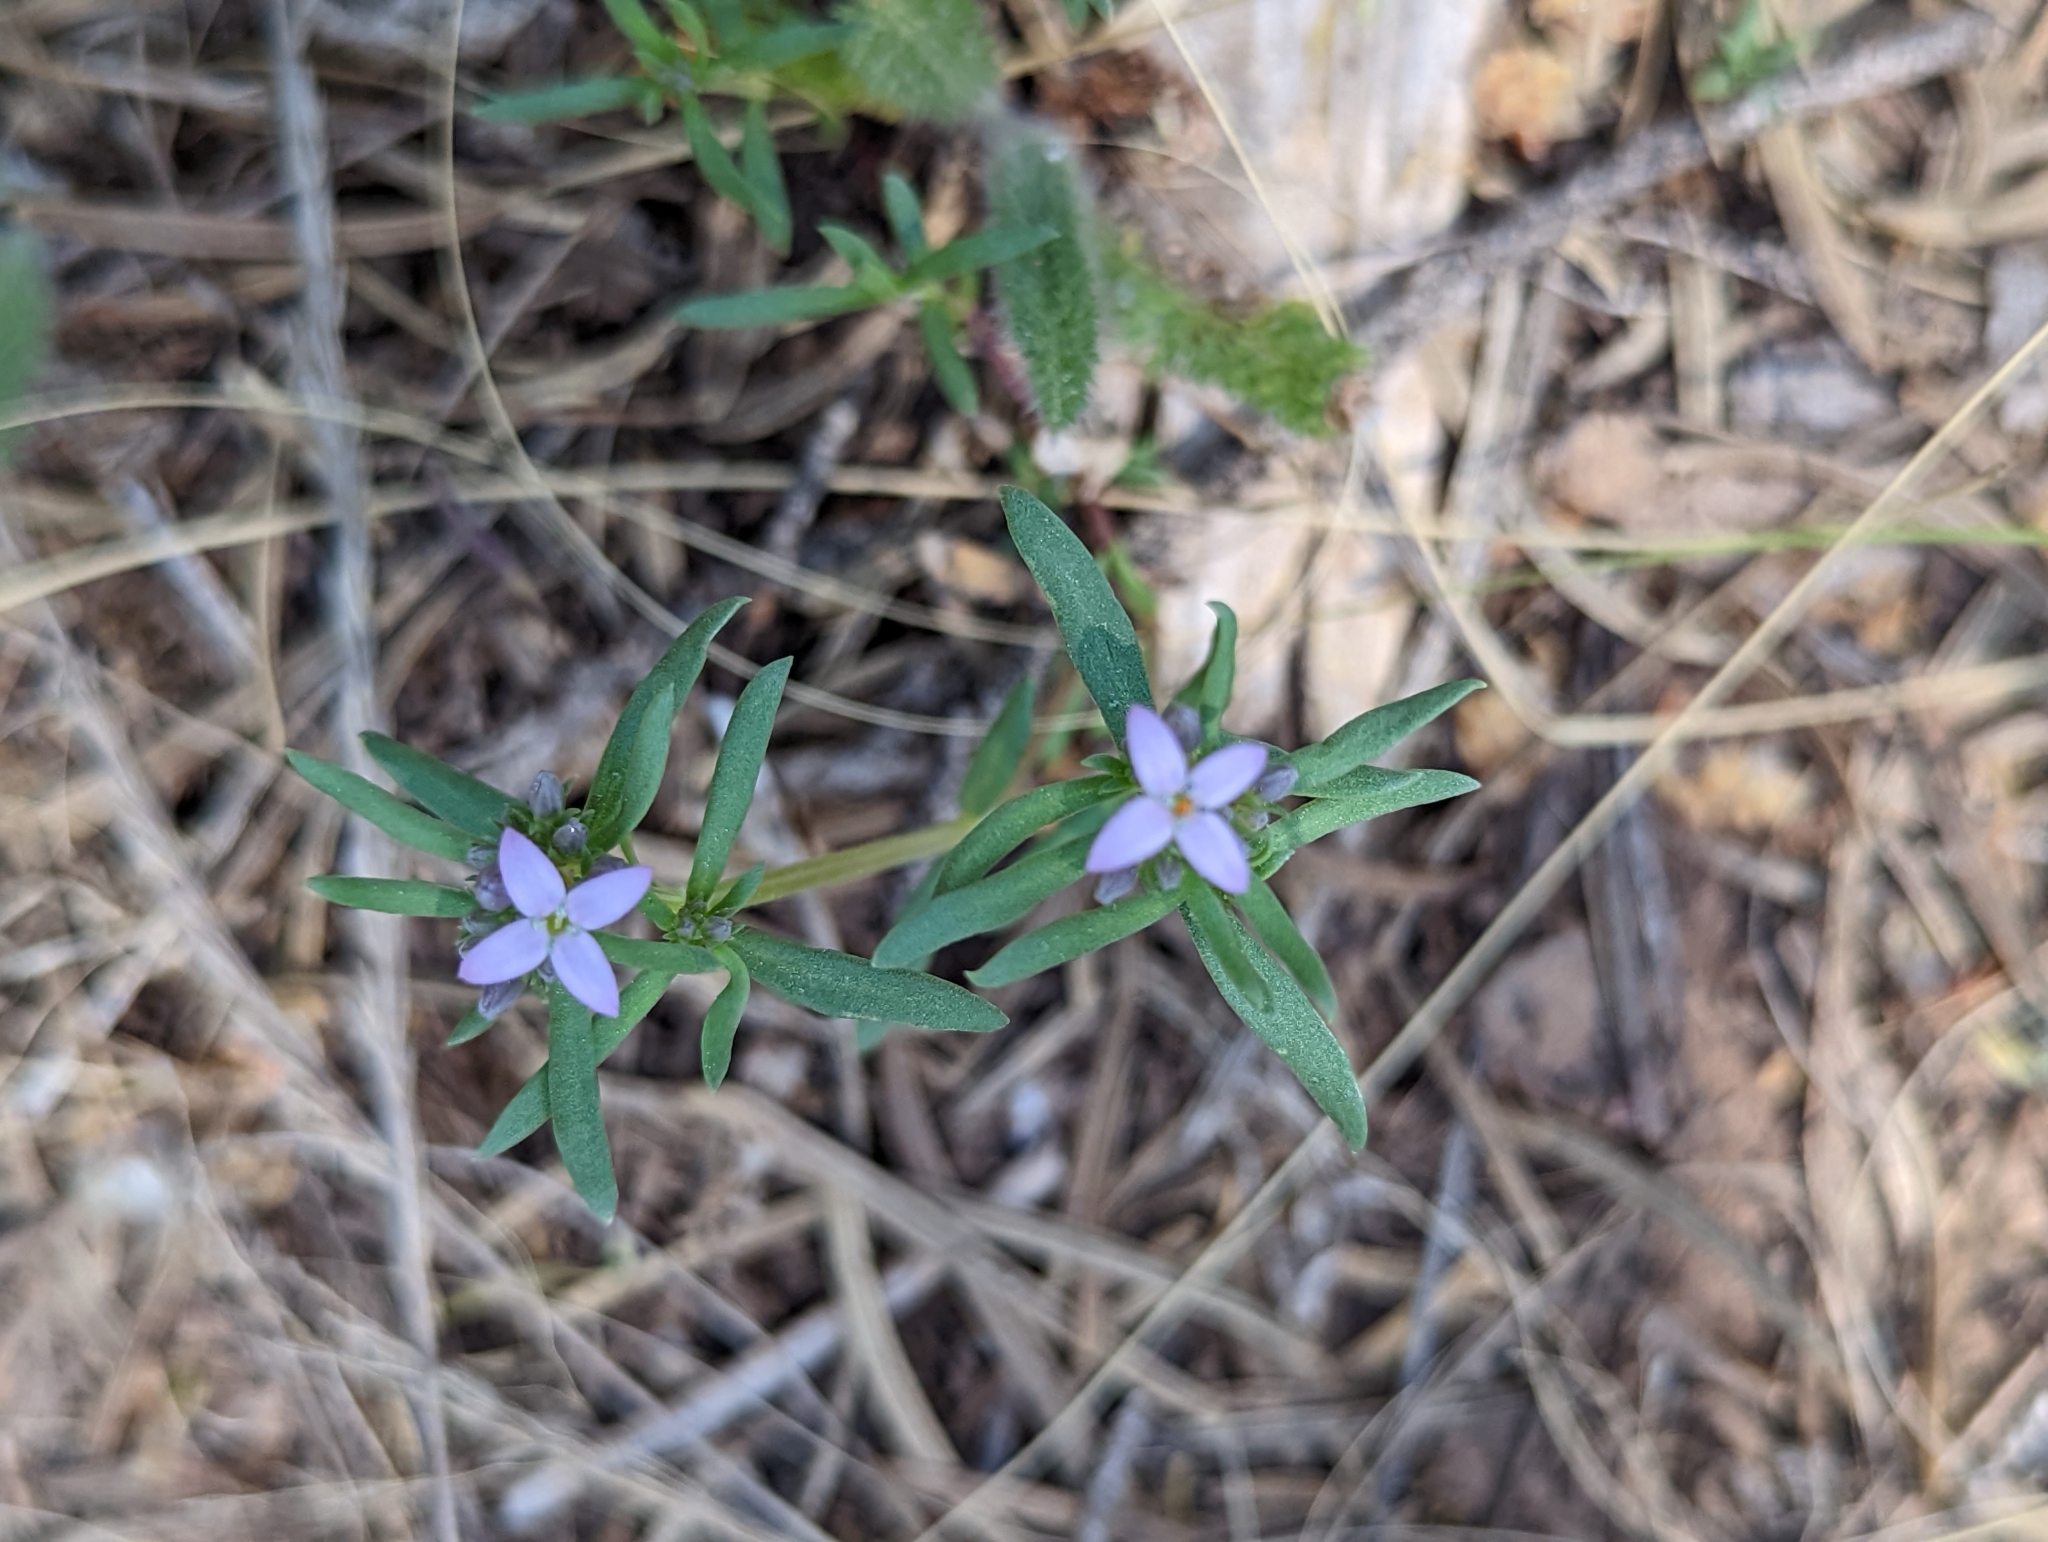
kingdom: Plantae
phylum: Tracheophyta
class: Magnoliopsida
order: Gentianales
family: Rubiaceae
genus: Houstonia
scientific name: Houstonia wrightii
